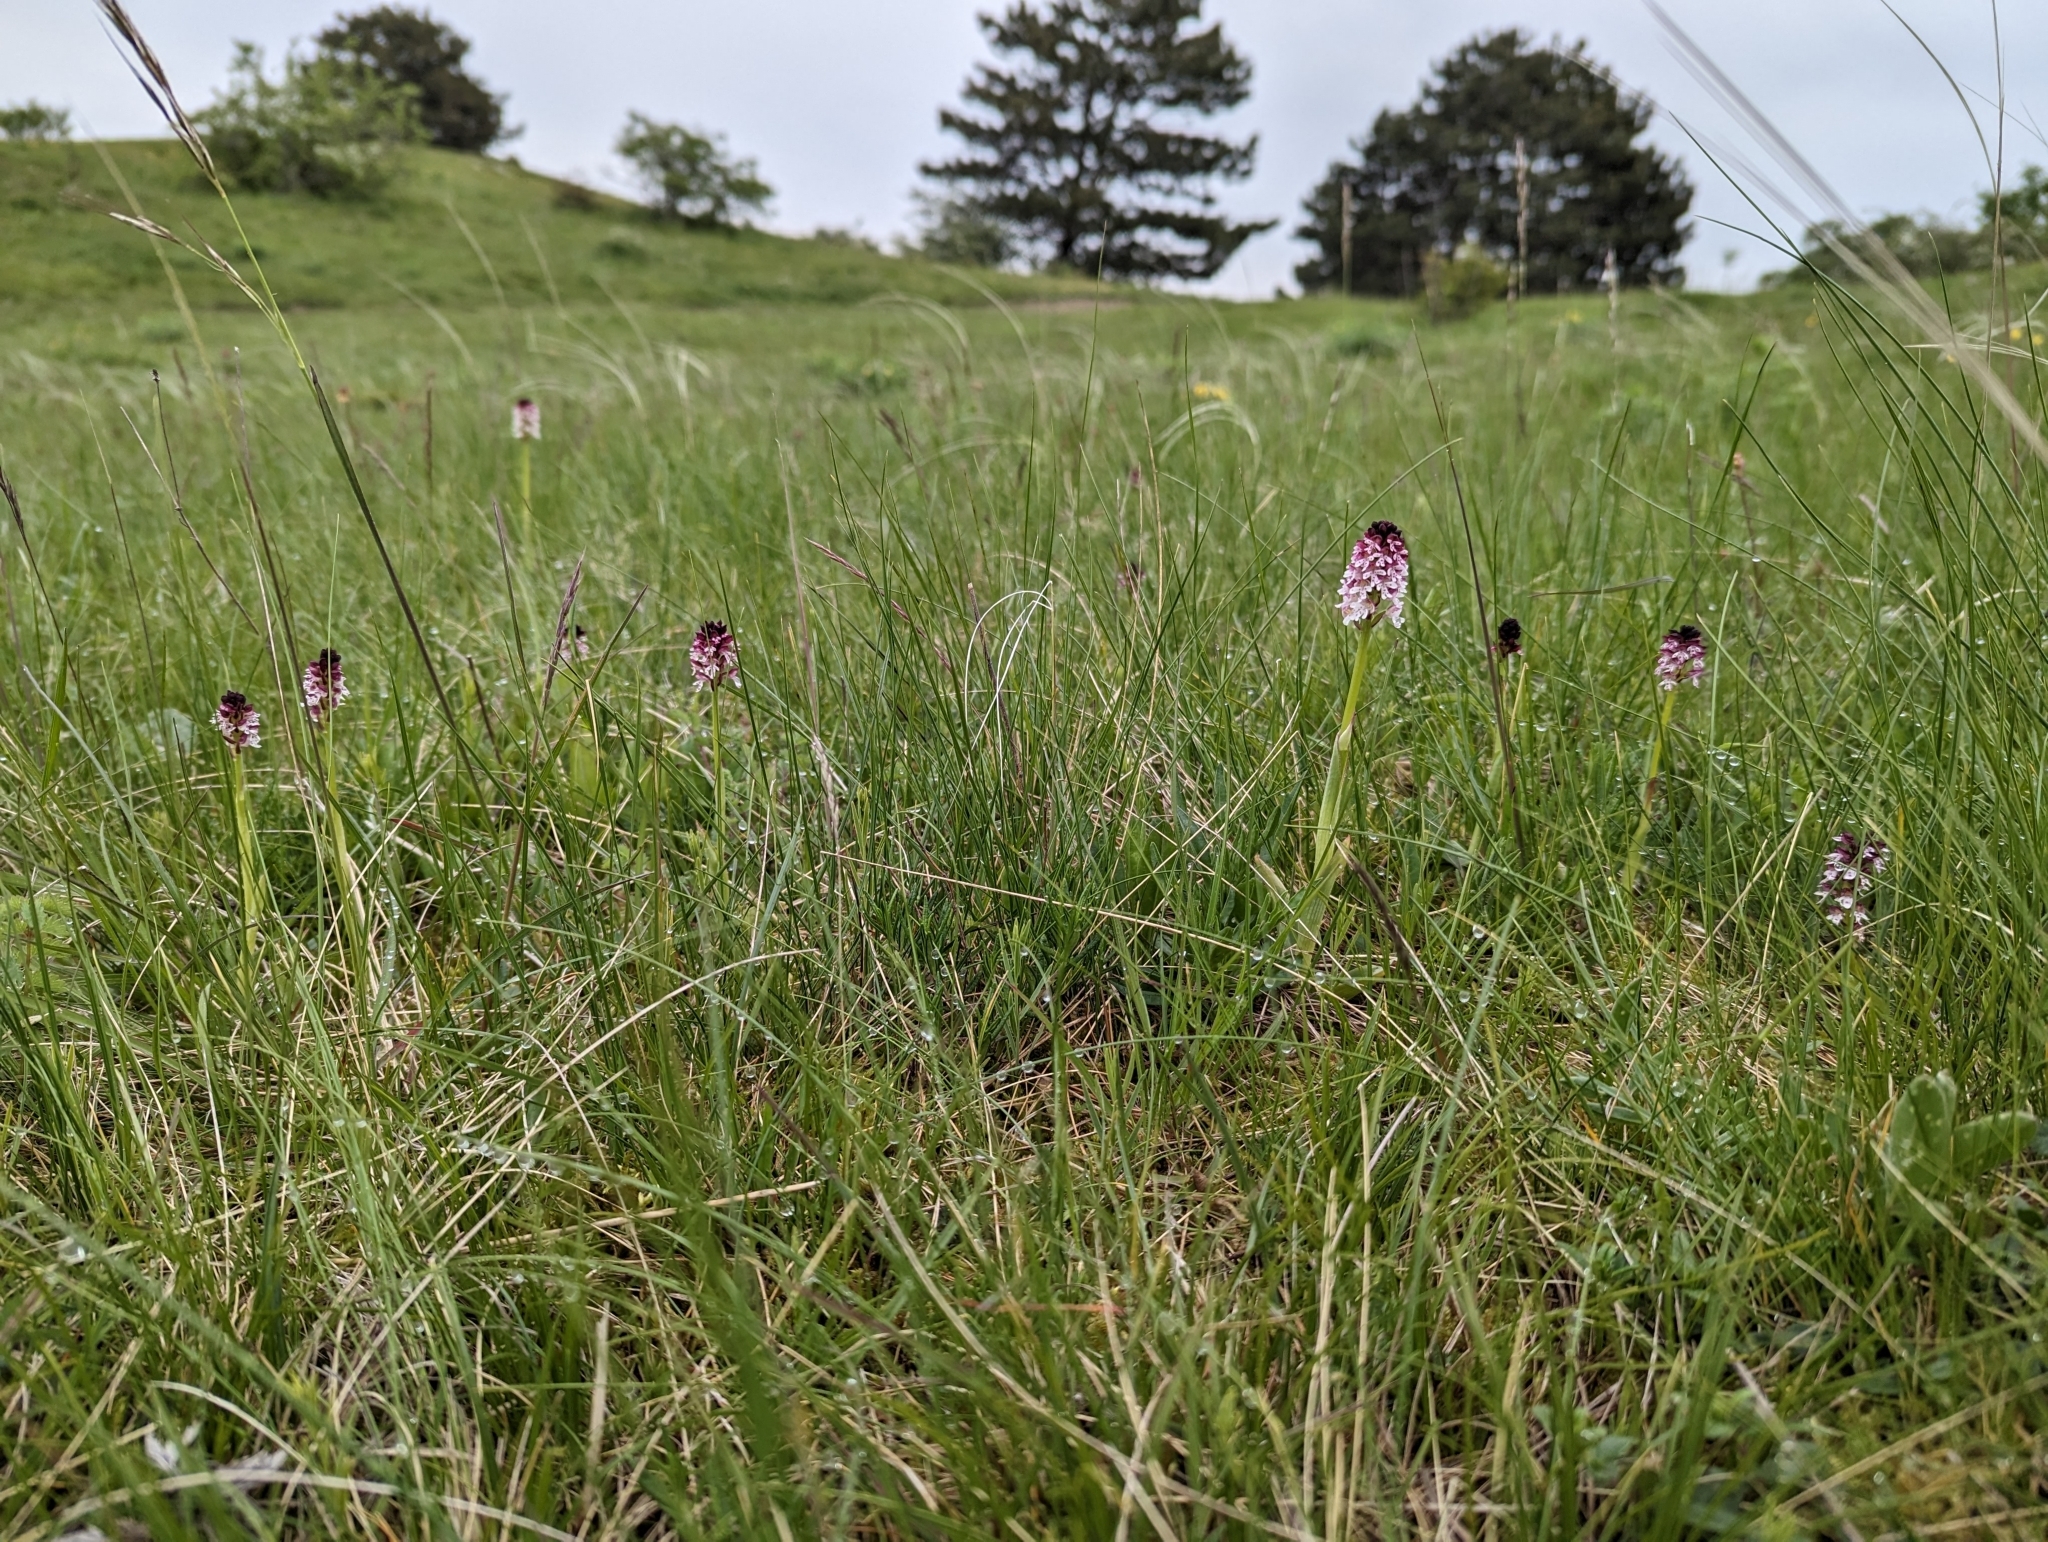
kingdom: Plantae
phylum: Tracheophyta
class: Liliopsida
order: Asparagales
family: Orchidaceae
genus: Neotinea
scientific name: Neotinea ustulata
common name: Burnt orchid
